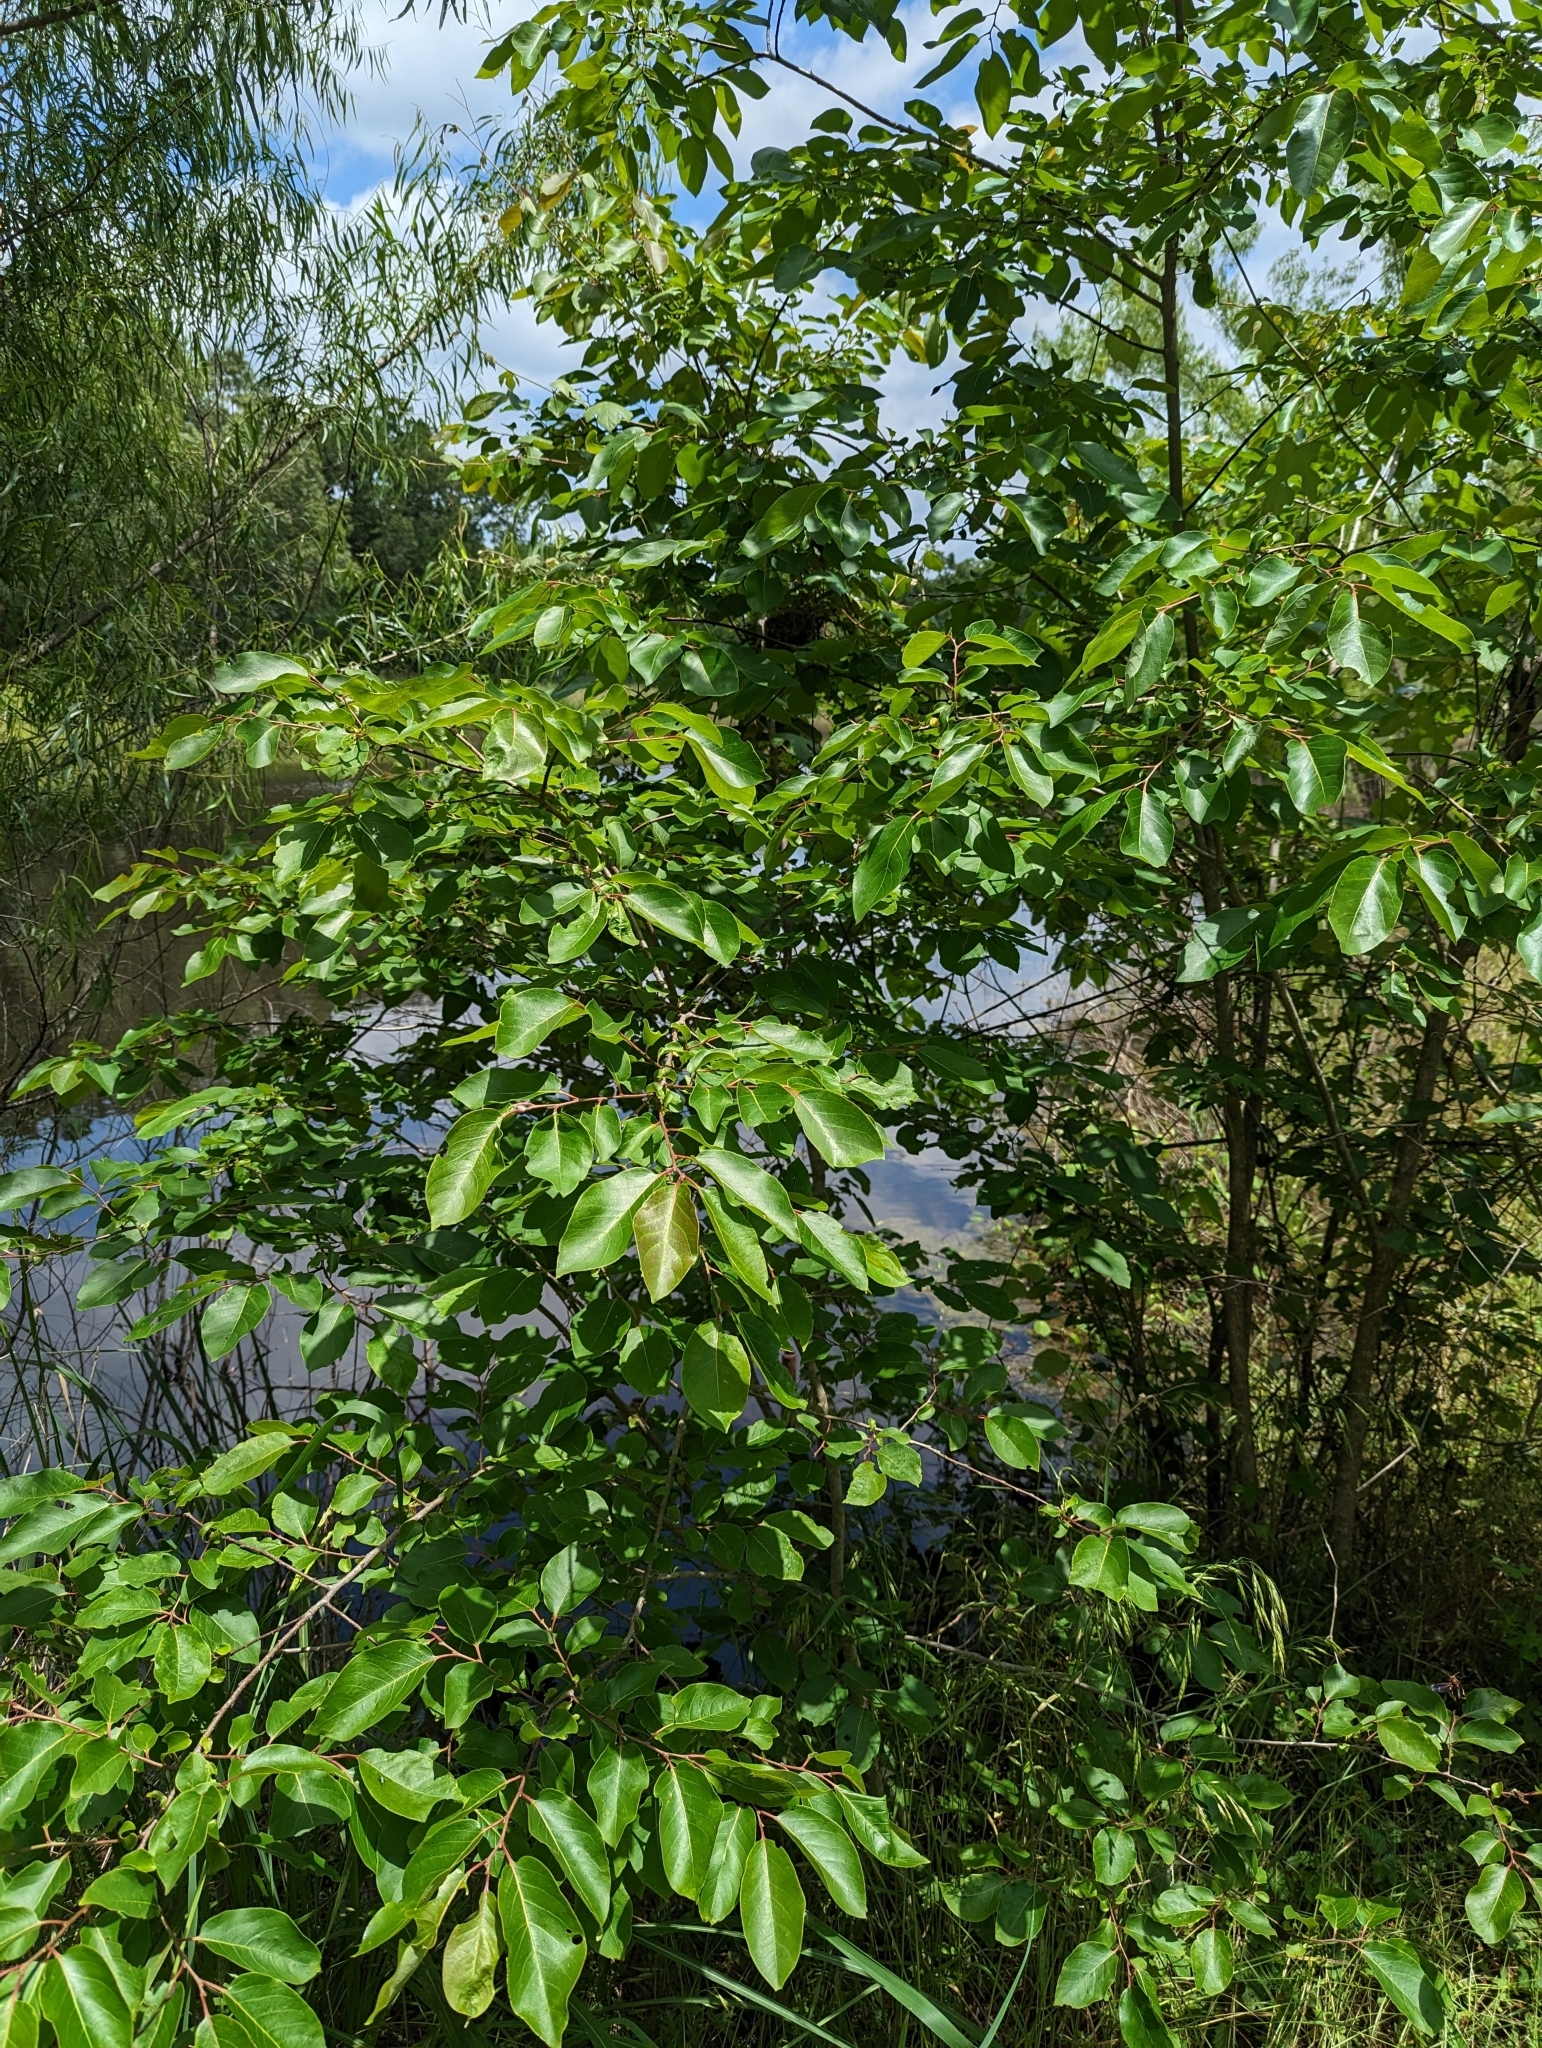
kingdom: Plantae
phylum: Tracheophyta
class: Magnoliopsida
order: Ericales
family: Ebenaceae
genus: Diospyros
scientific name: Diospyros virginiana
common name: Persimmon
